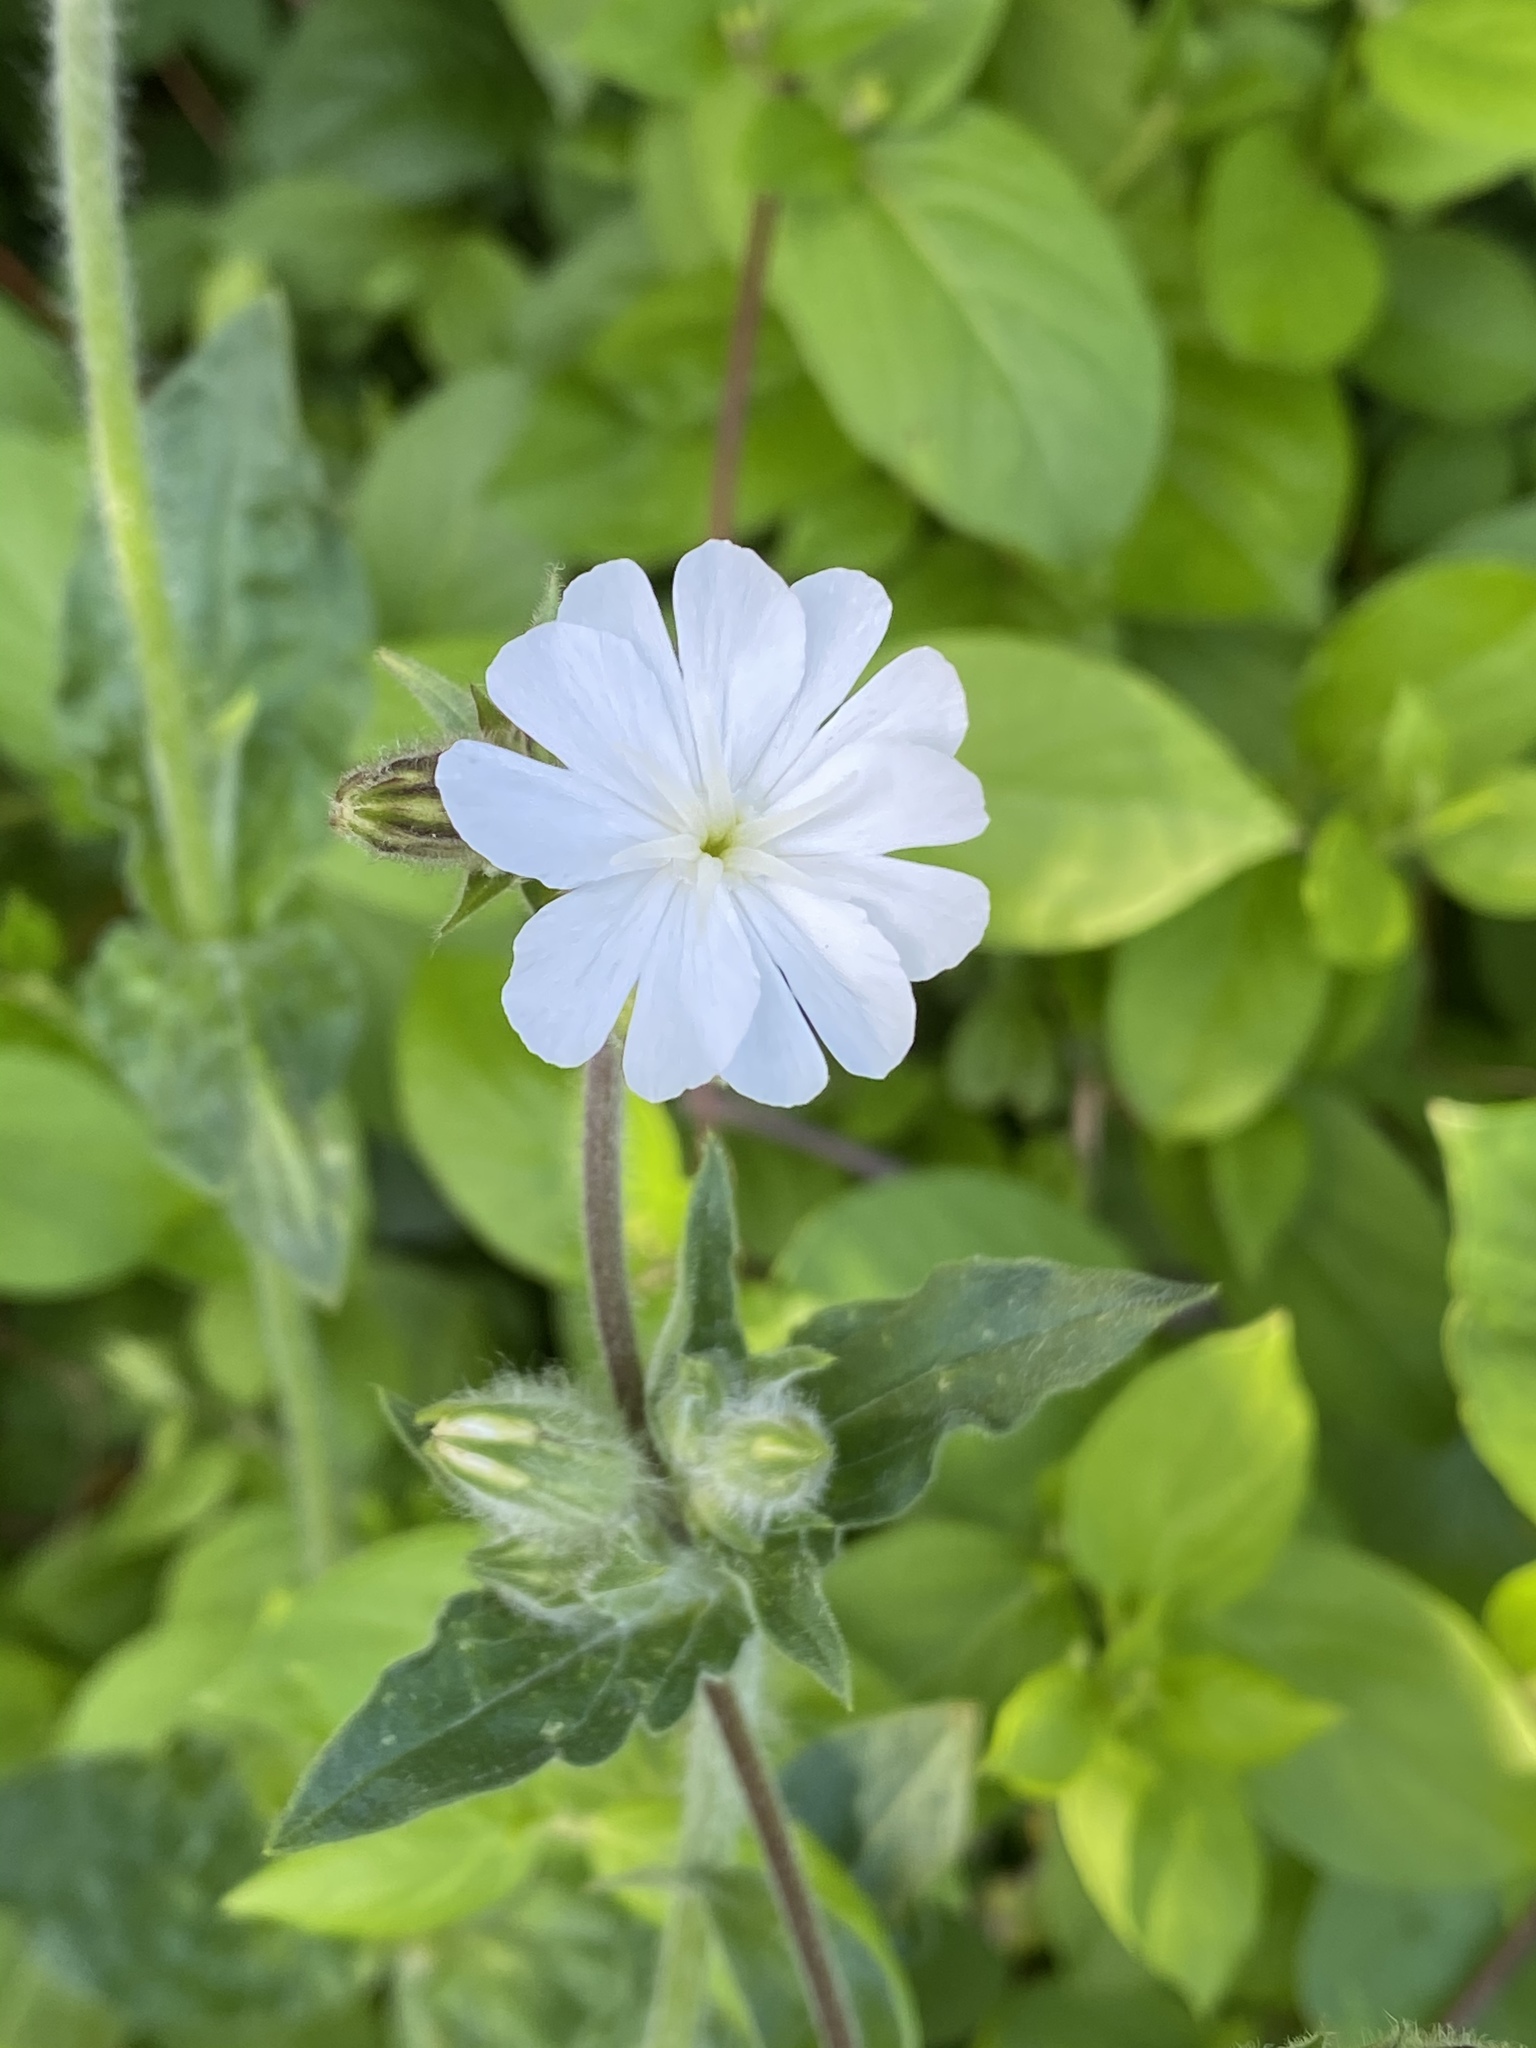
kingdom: Plantae
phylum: Tracheophyta
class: Magnoliopsida
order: Caryophyllales
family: Caryophyllaceae
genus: Silene
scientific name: Silene latifolia
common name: White campion
